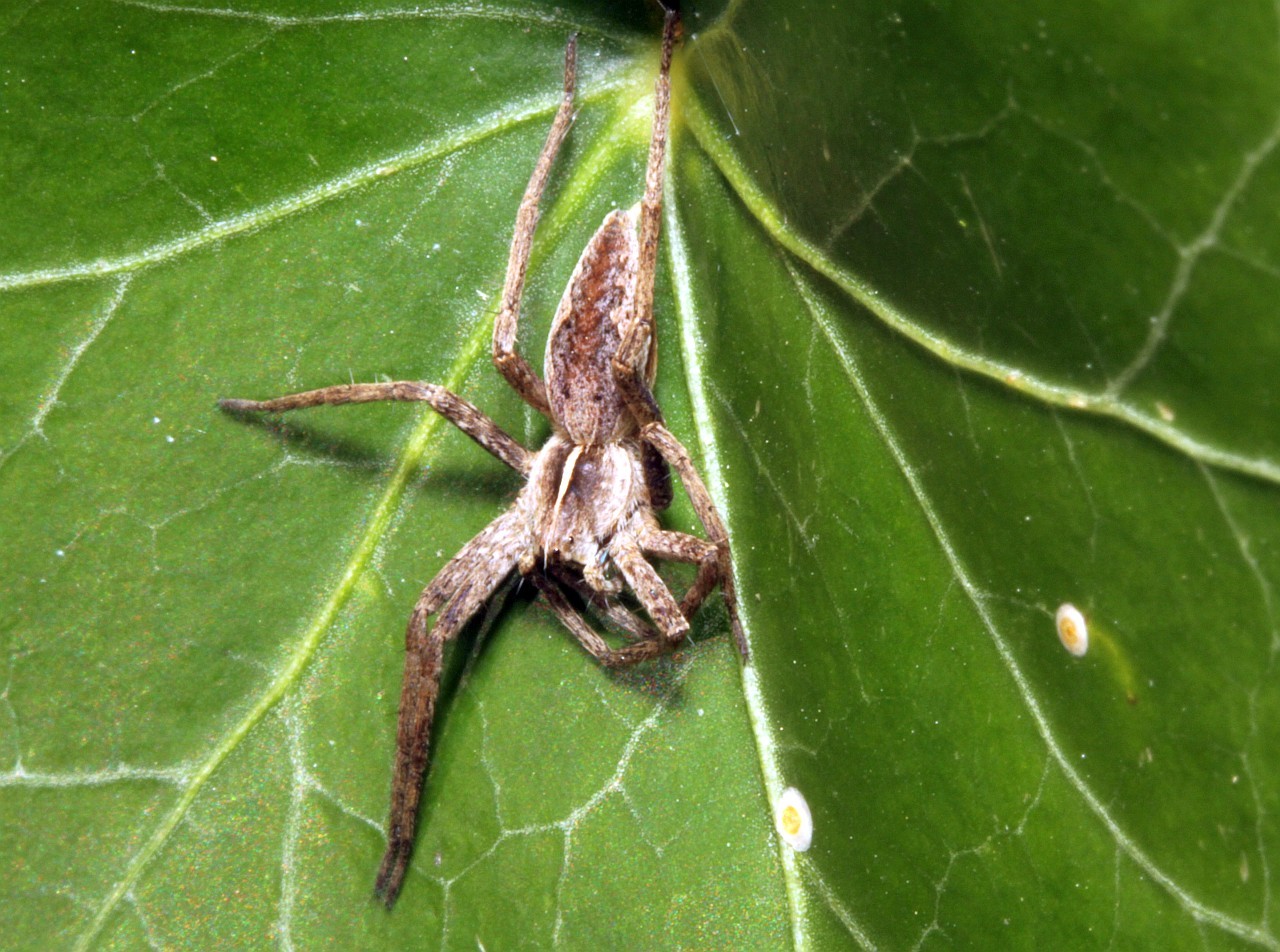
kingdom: Animalia
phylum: Arthropoda
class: Arachnida
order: Araneae
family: Pisauridae
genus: Pisaura
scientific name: Pisaura mirabilis
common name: Tent spider
